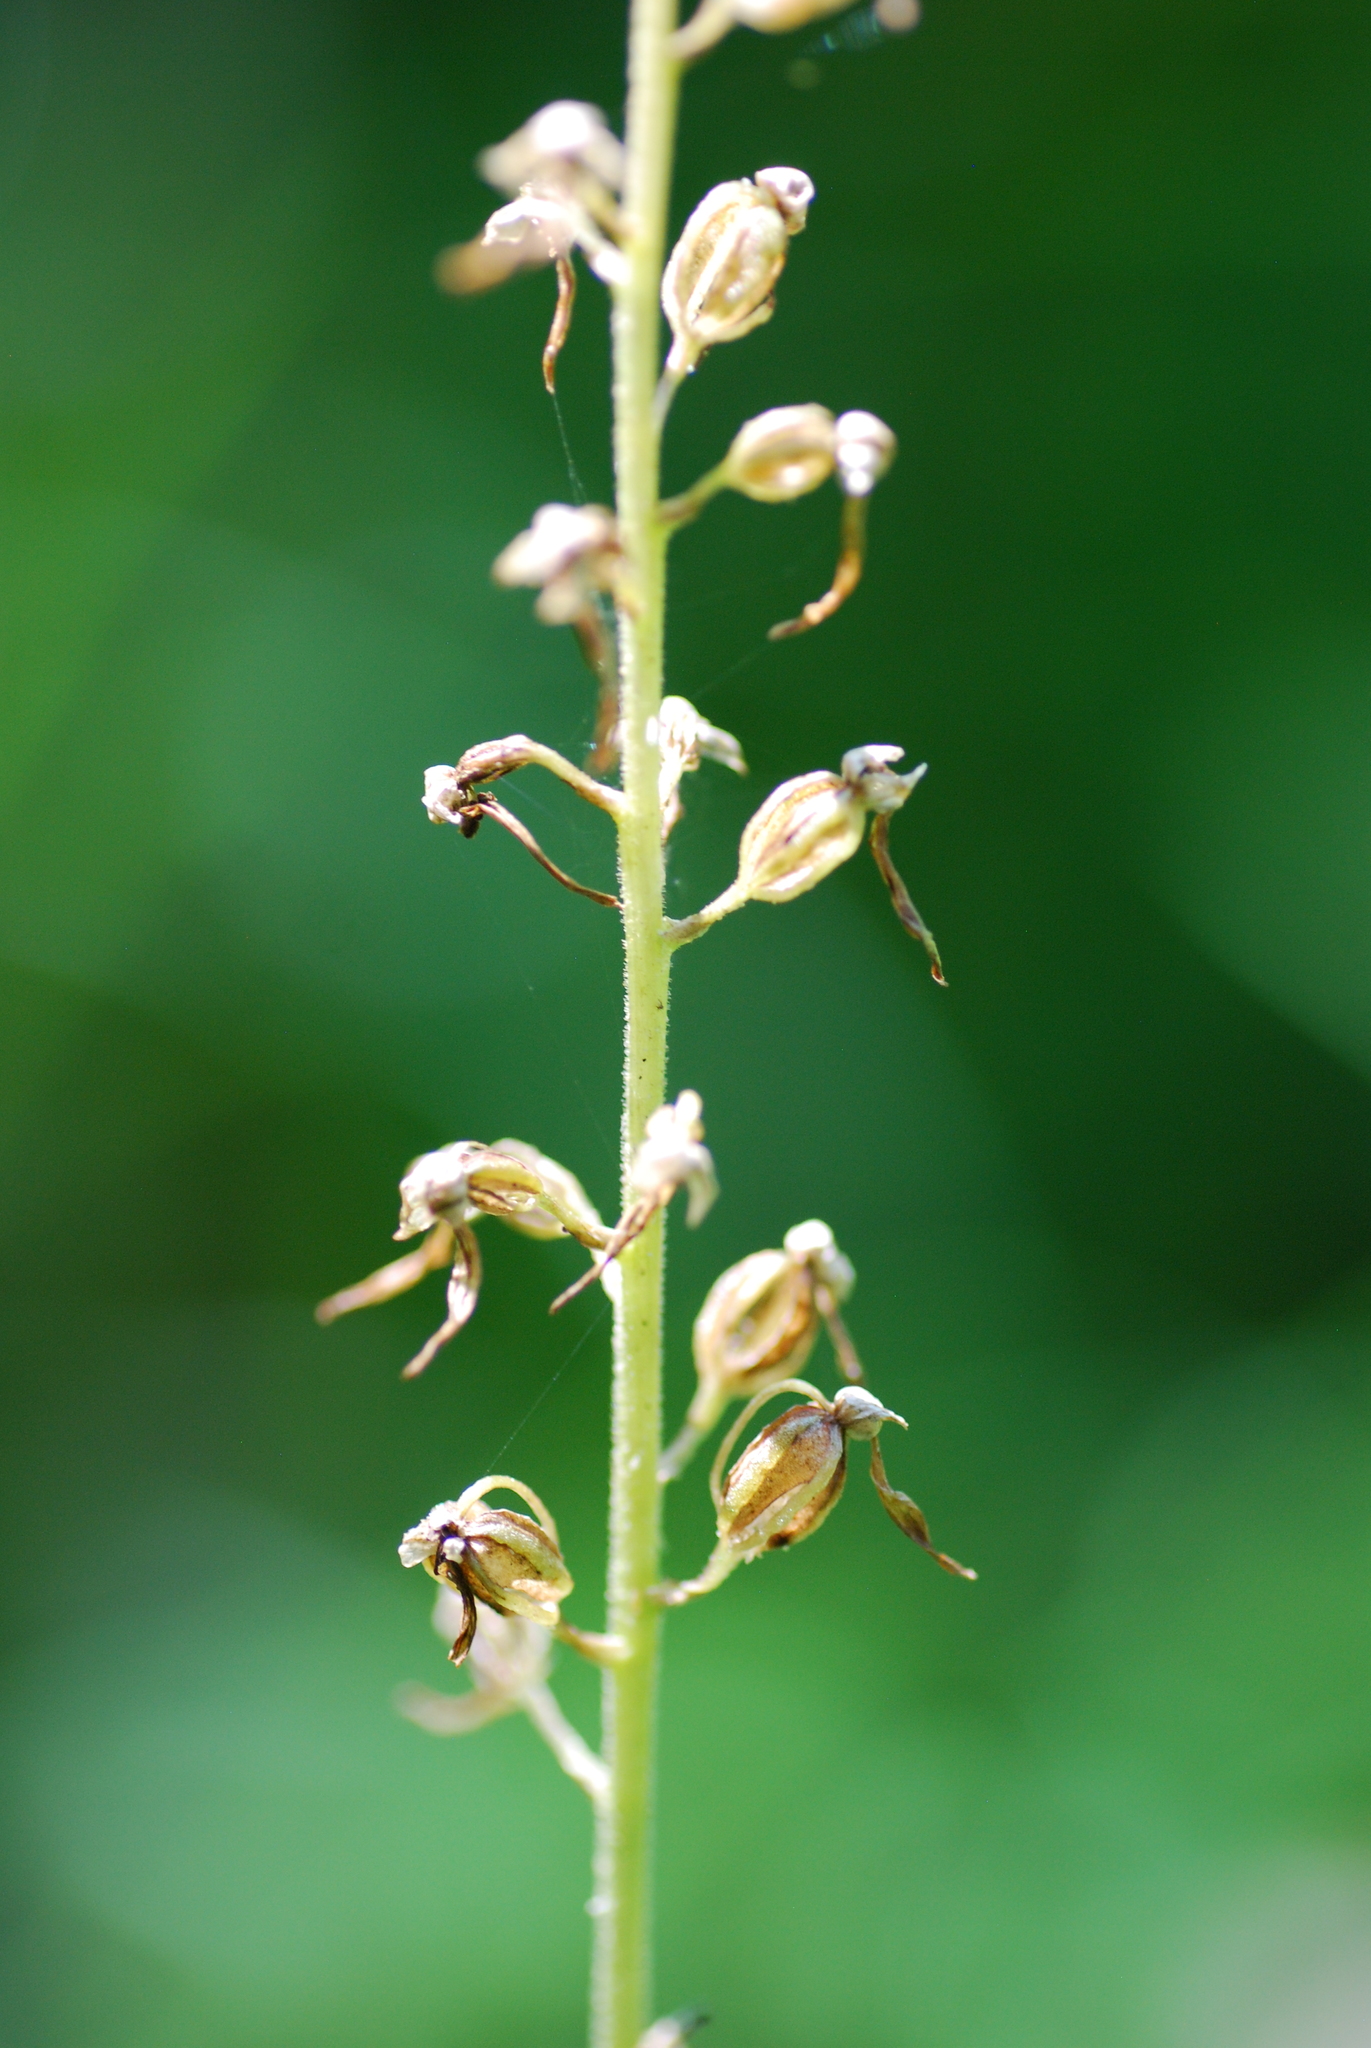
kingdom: Plantae
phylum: Tracheophyta
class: Liliopsida
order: Asparagales
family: Orchidaceae
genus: Neottia
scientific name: Neottia ovata
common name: Common twayblade
